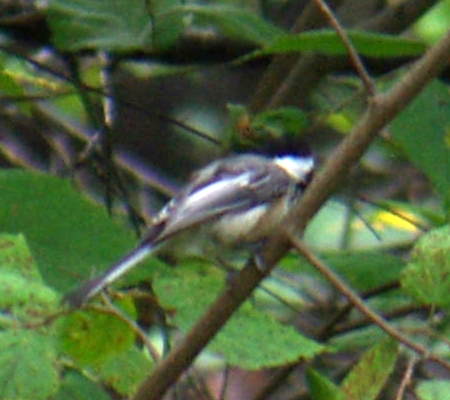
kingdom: Animalia
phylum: Chordata
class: Aves
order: Passeriformes
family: Paridae
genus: Poecile
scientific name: Poecile atricapillus
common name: Black-capped chickadee
